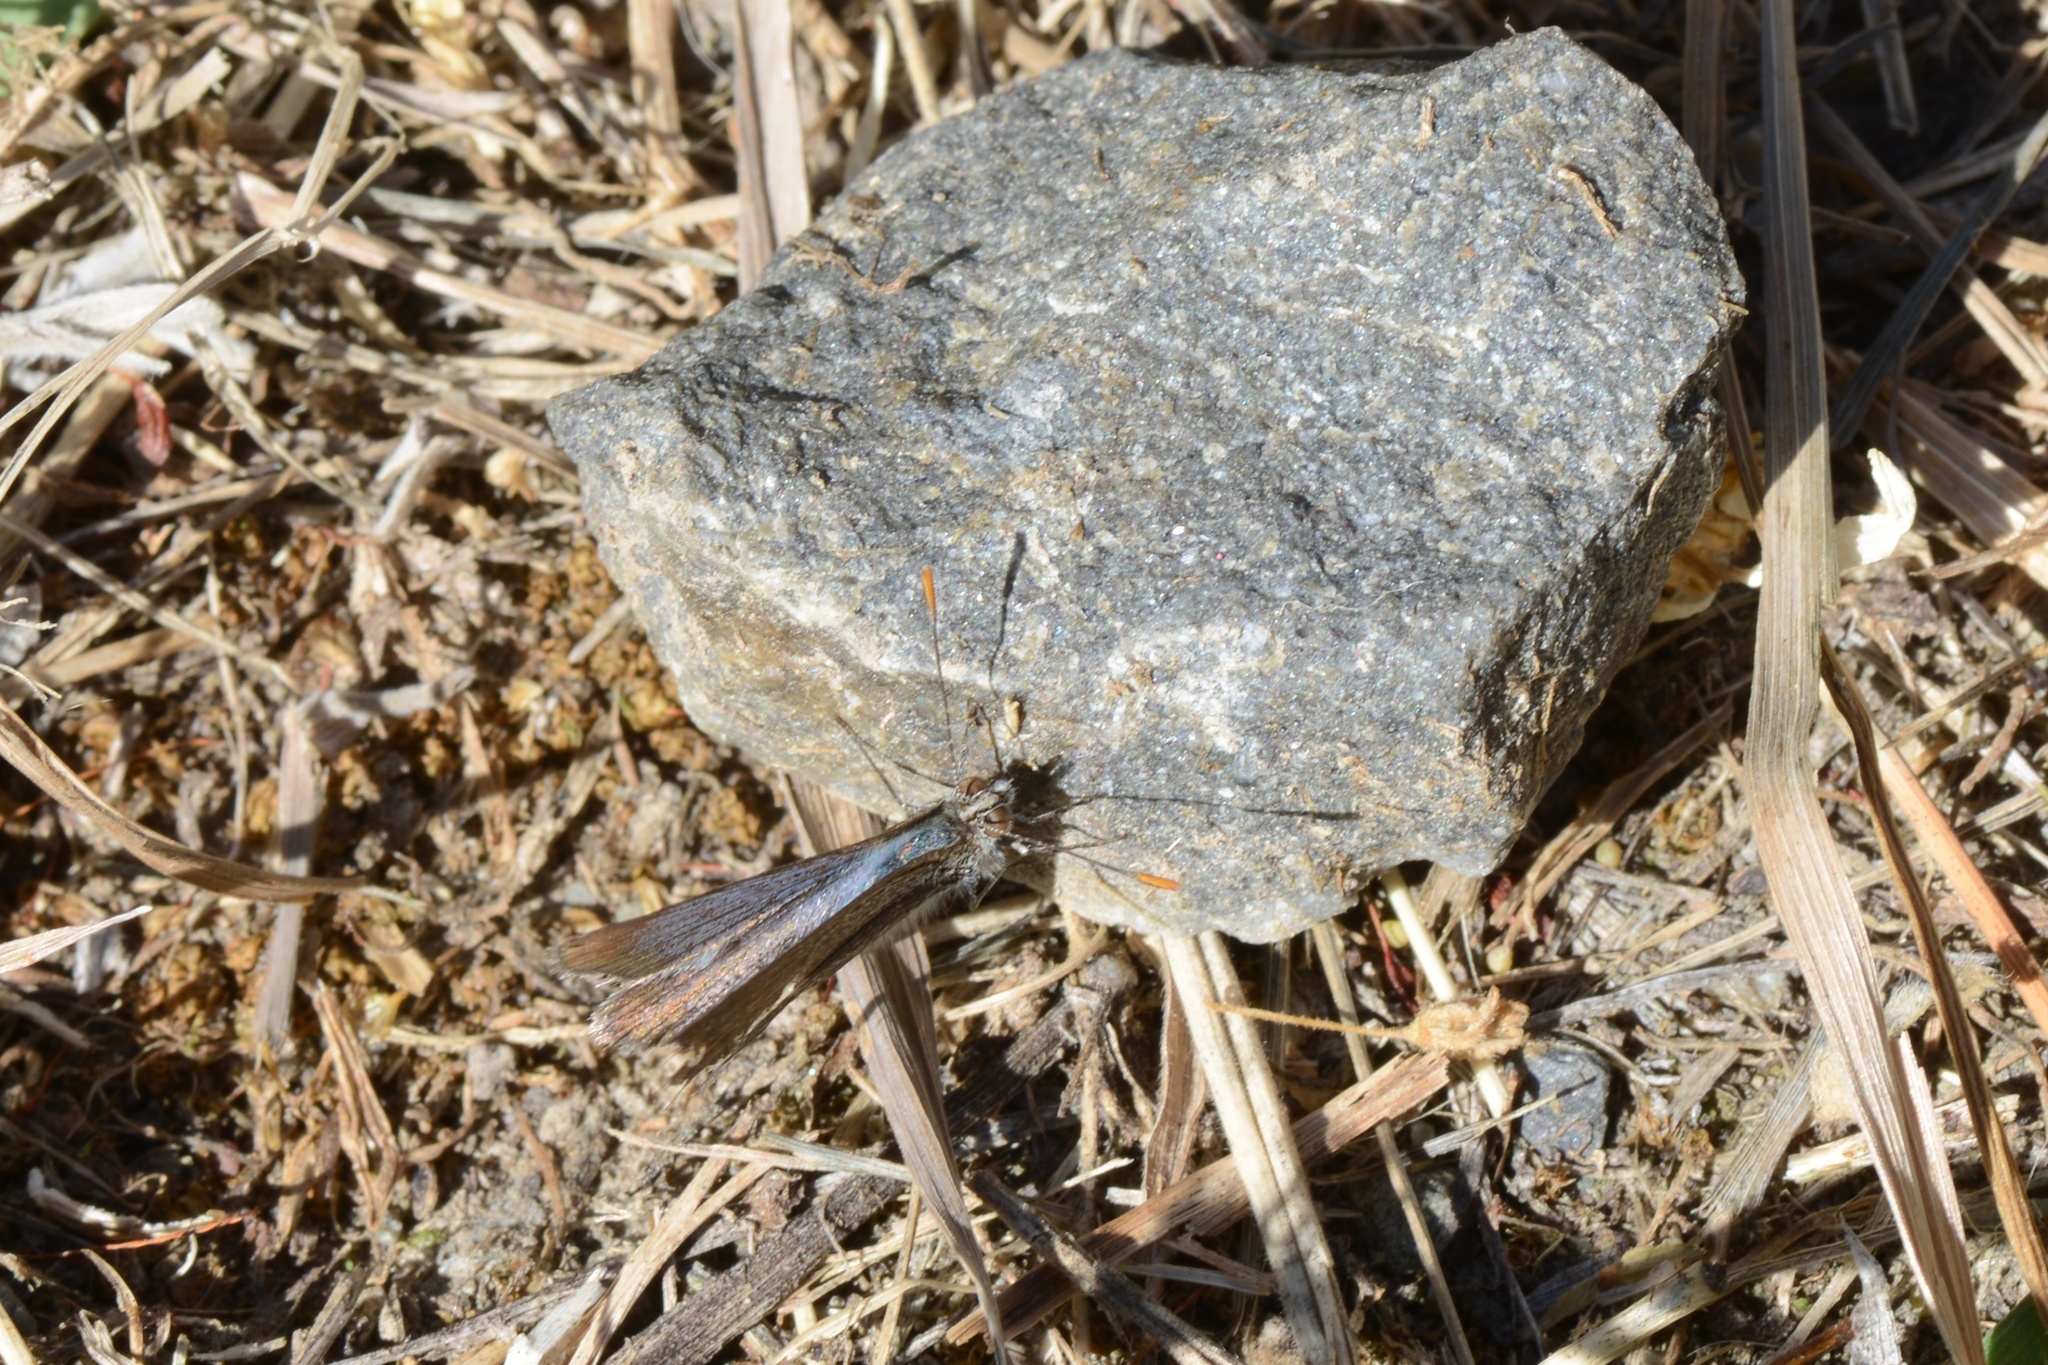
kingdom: Animalia
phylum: Arthropoda
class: Insecta
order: Lepidoptera
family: Lycaenidae
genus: Zizina
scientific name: Zizina oxleyi
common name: Southern blue
